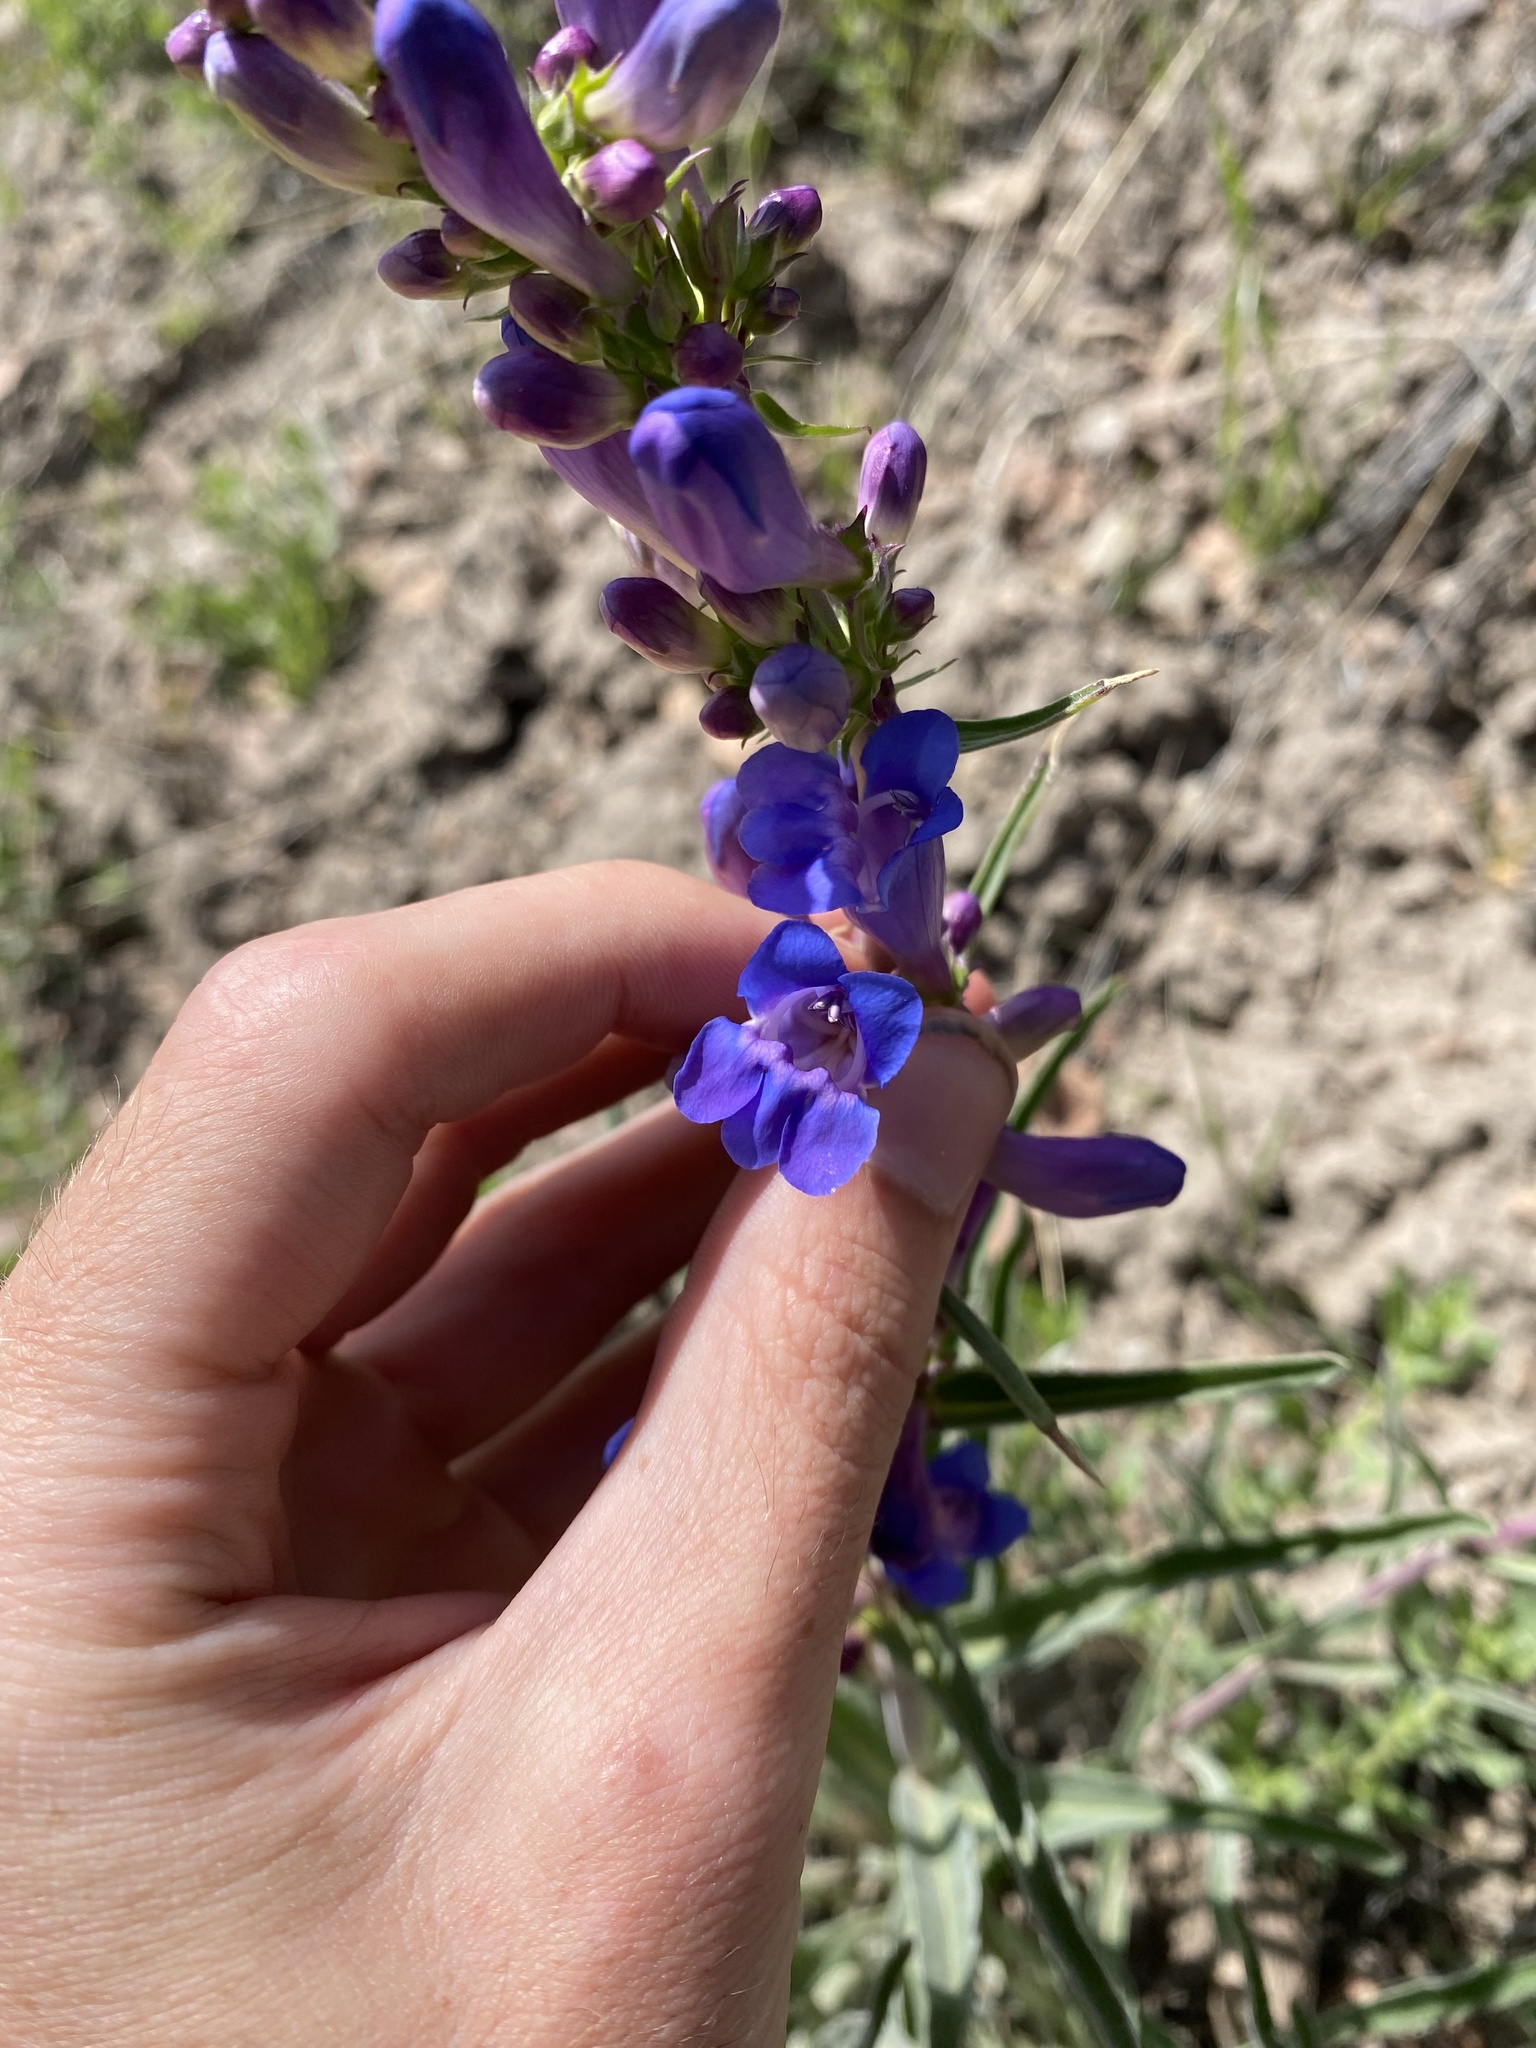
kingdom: Plantae
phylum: Tracheophyta
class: Magnoliopsida
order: Lamiales
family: Plantaginaceae
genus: Penstemon
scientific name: Penstemon speciosus
